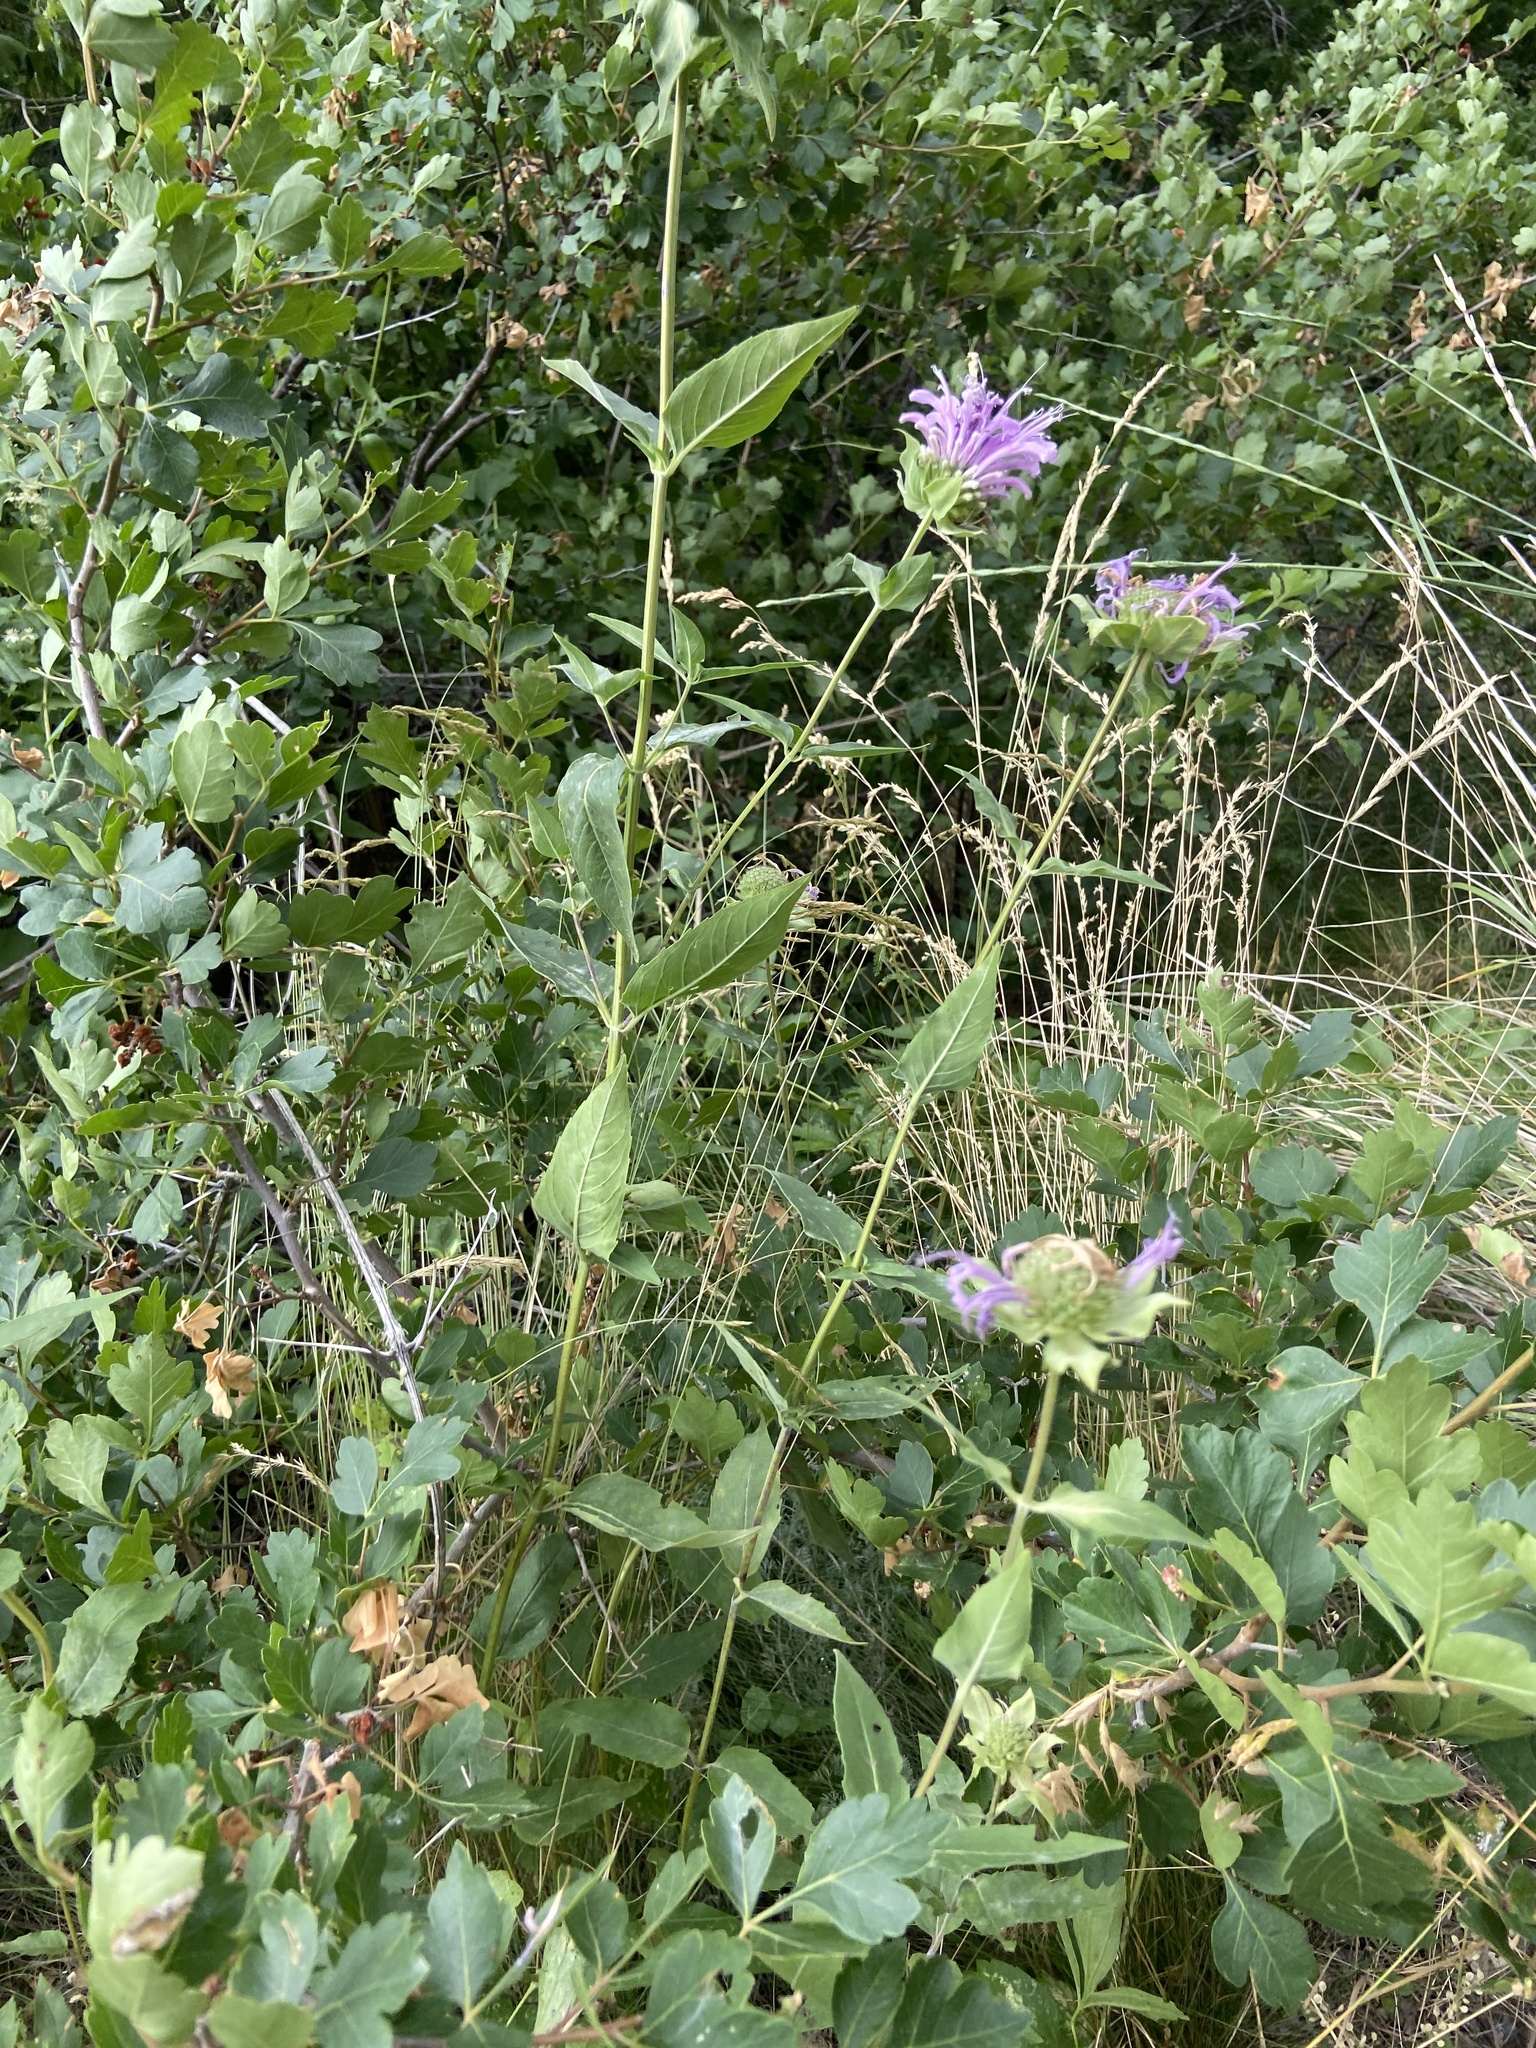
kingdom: Plantae
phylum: Tracheophyta
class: Magnoliopsida
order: Lamiales
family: Lamiaceae
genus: Monarda
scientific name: Monarda fistulosa
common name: Purple beebalm
